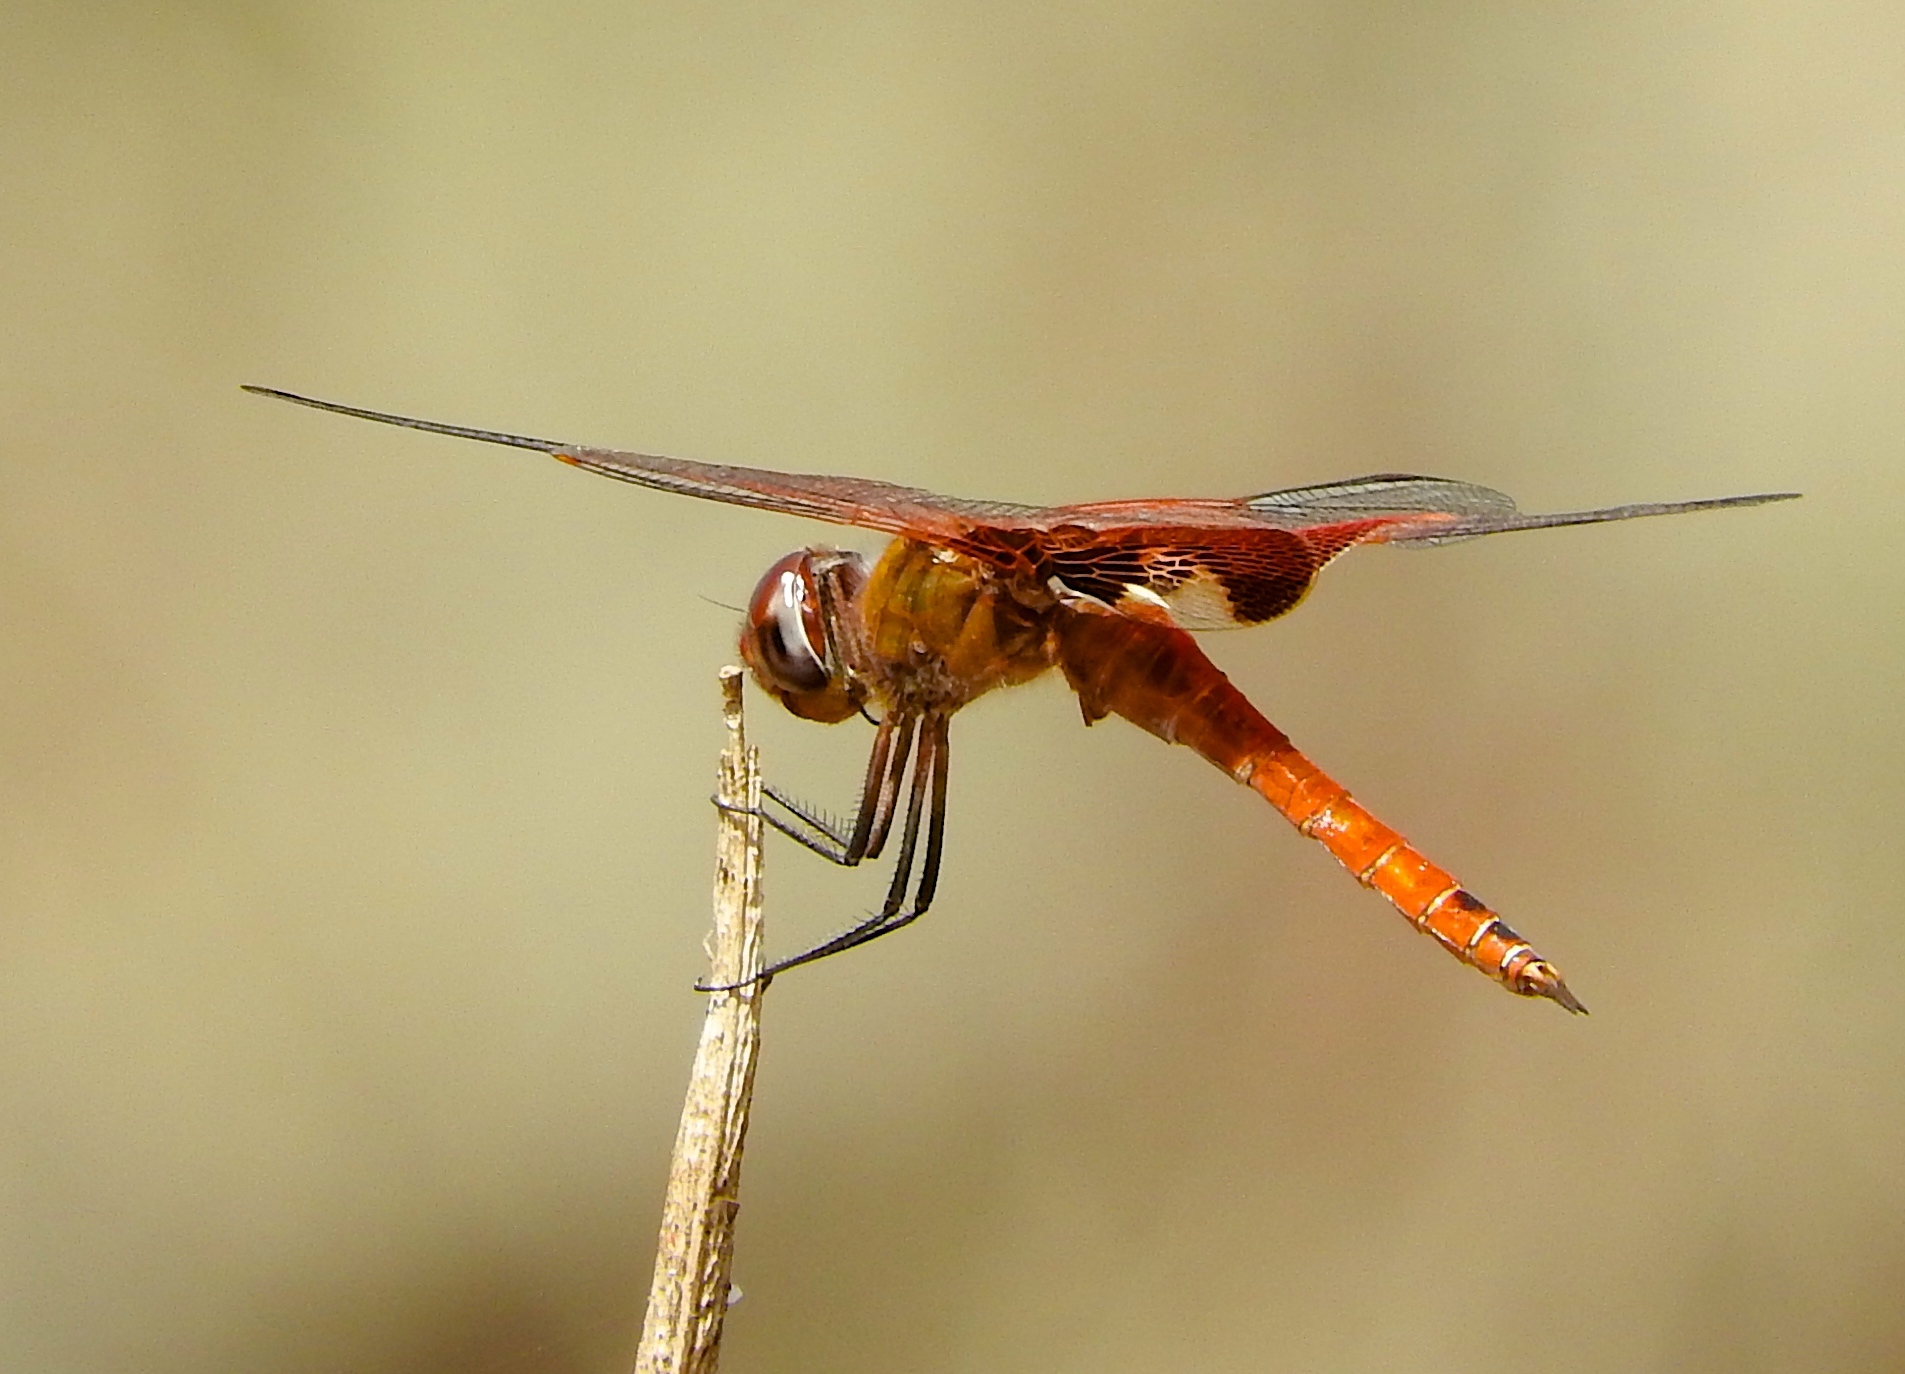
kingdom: Animalia
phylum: Arthropoda
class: Insecta
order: Odonata
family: Libellulidae
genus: Tramea
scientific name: Tramea
